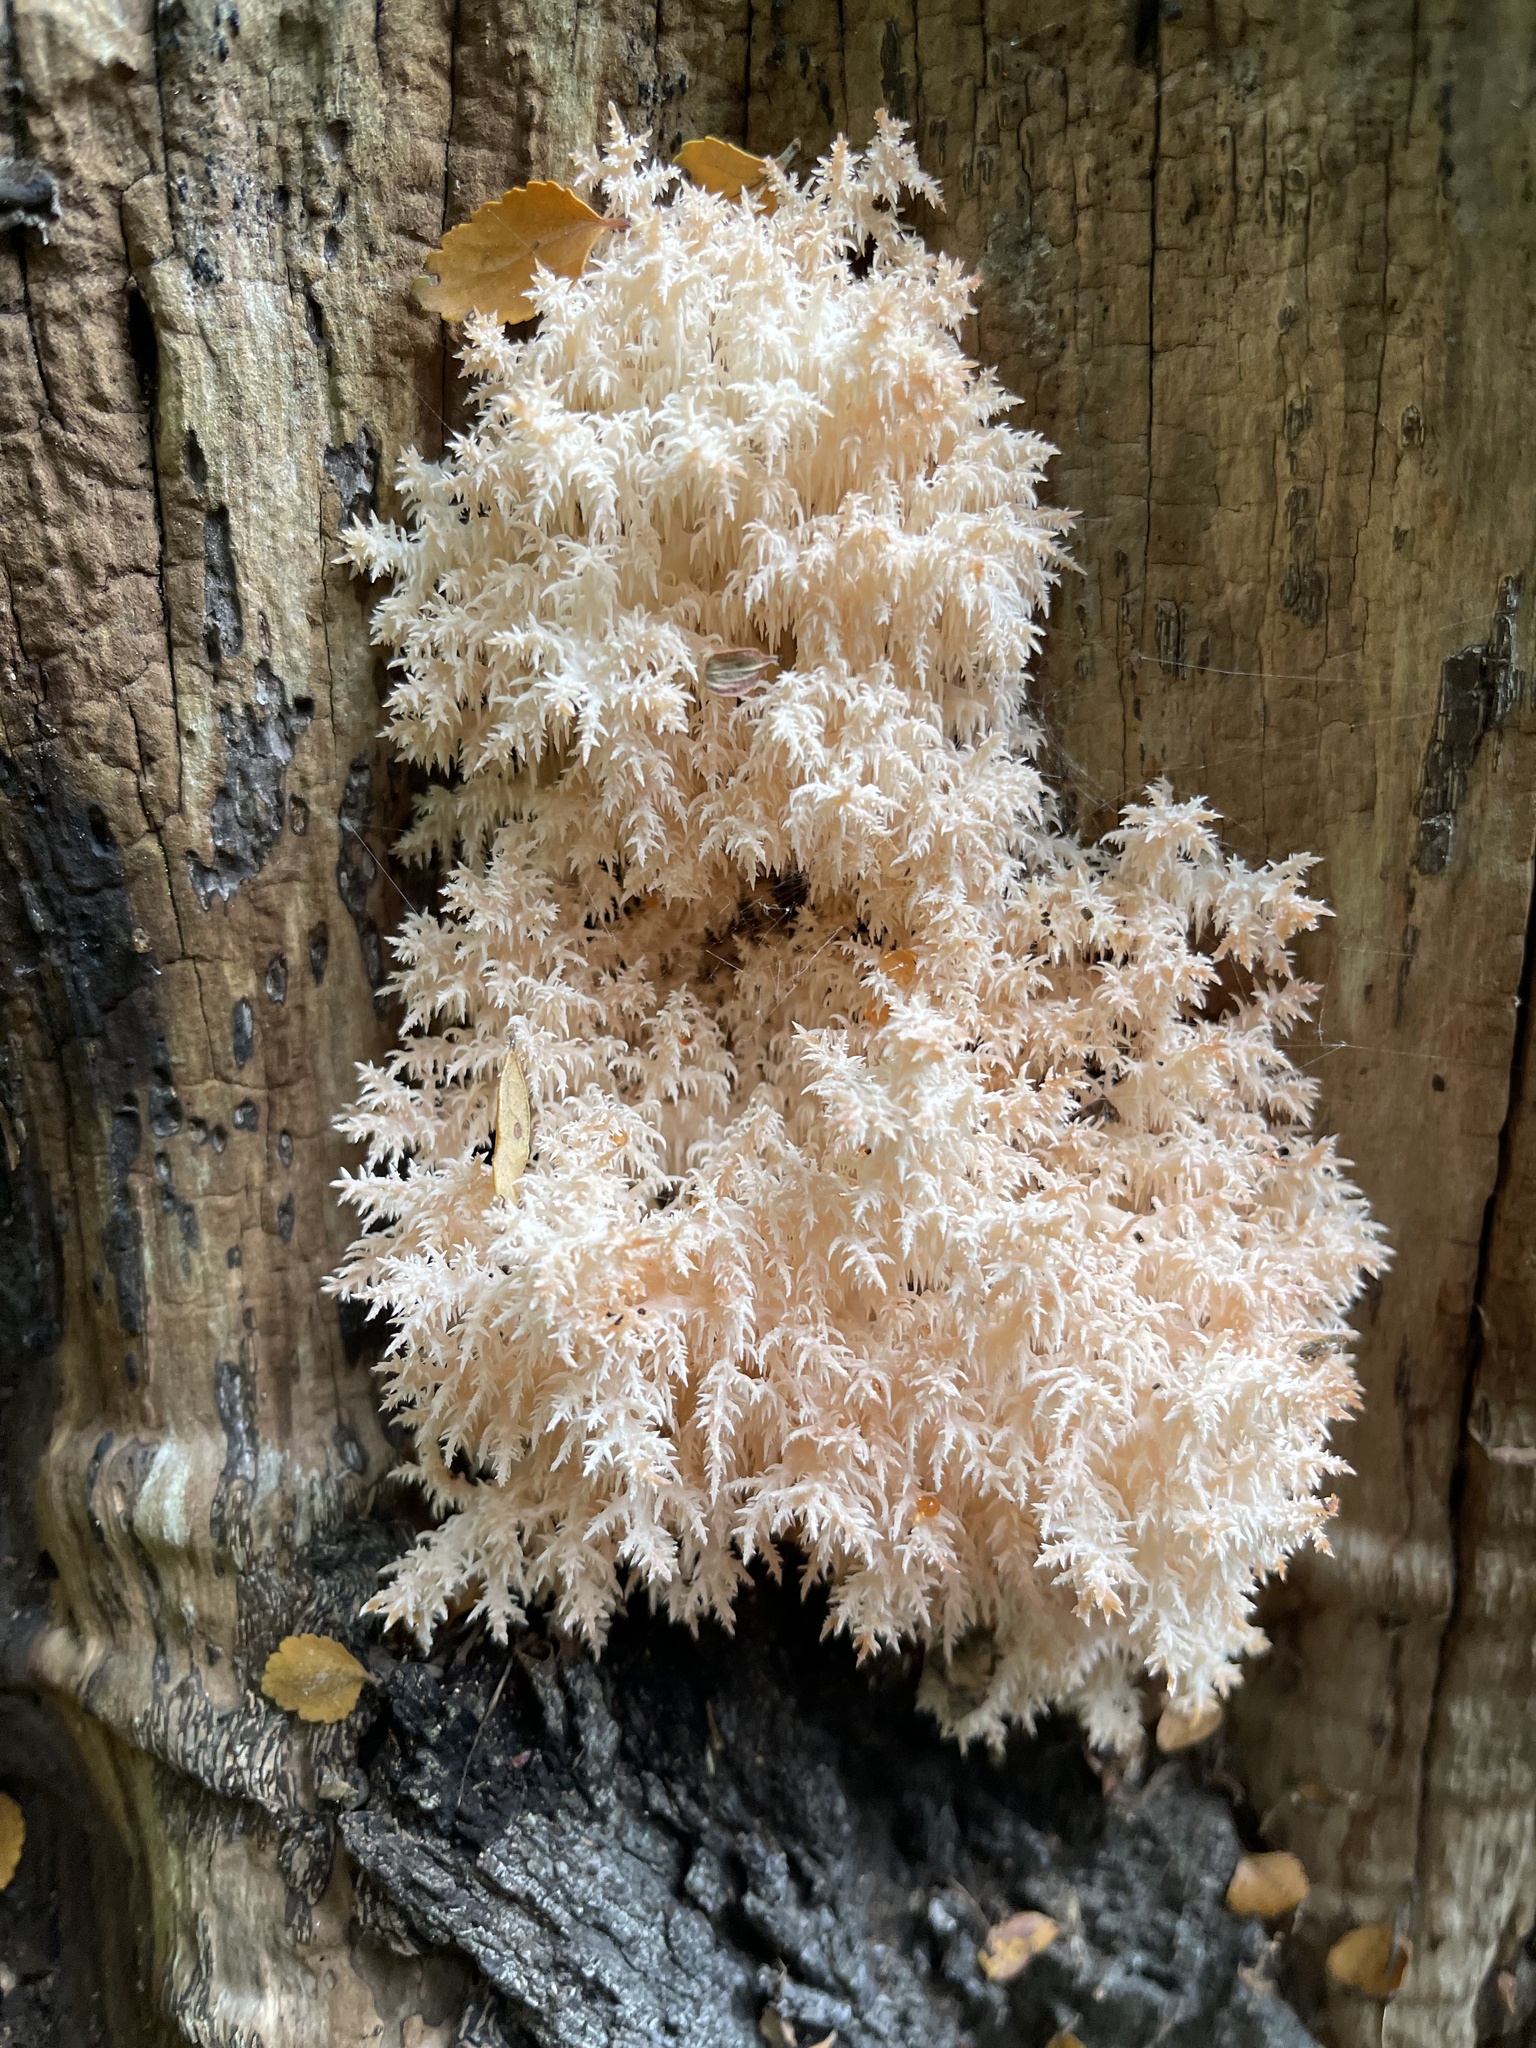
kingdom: Fungi
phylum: Basidiomycota
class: Agaricomycetes
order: Russulales
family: Hericiaceae
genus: Hericium
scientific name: Hericium novae-zealandiae
